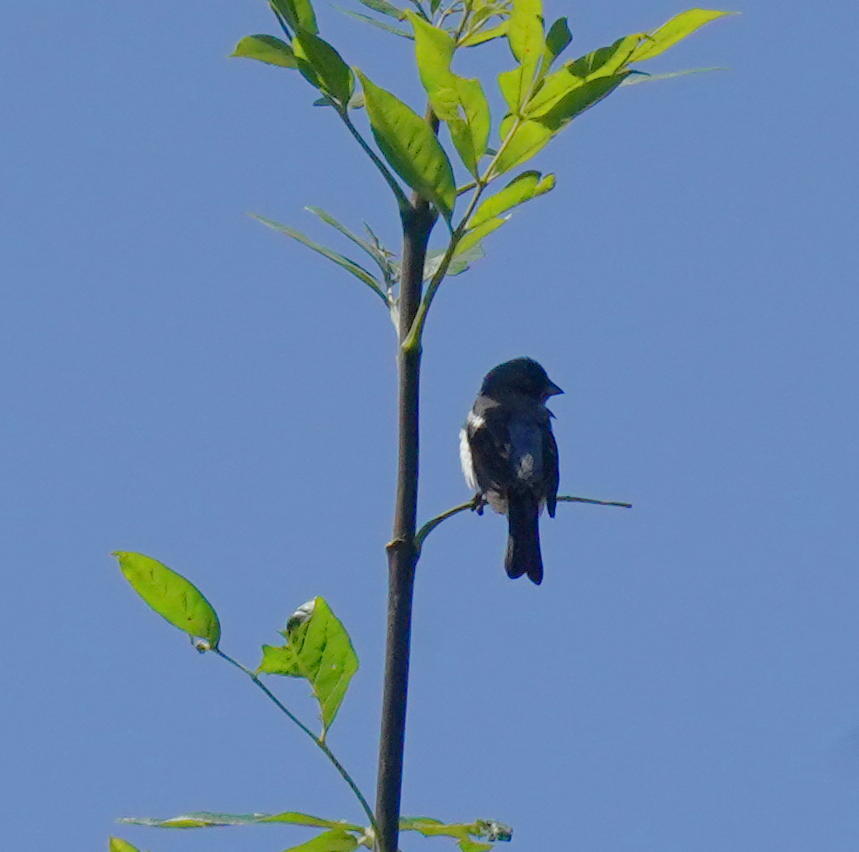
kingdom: Animalia
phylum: Chordata
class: Aves
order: Passeriformes
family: Cardinalidae
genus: Passerina
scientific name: Passerina amoena
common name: Lazuli bunting
